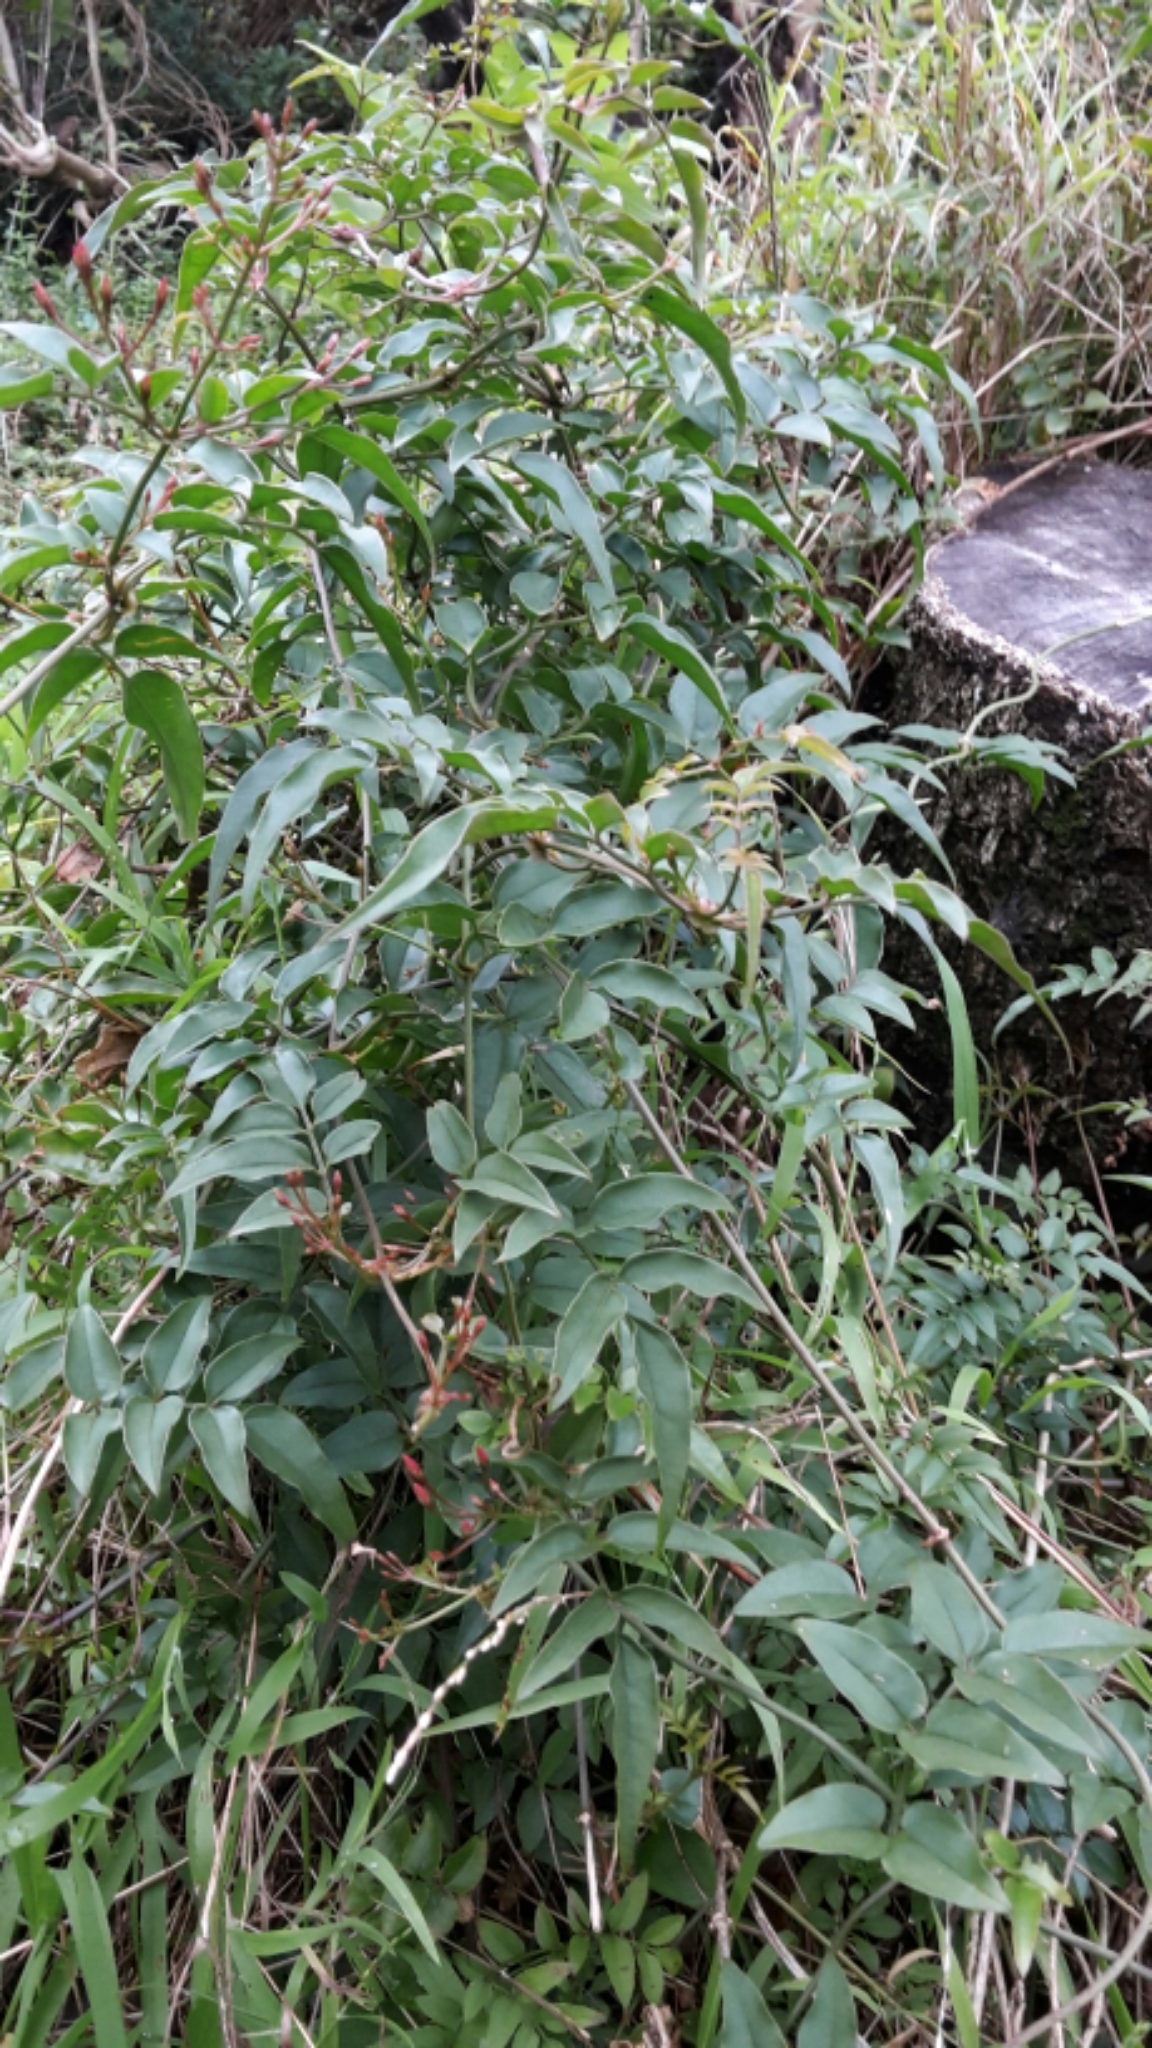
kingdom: Plantae
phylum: Tracheophyta
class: Magnoliopsida
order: Lamiales
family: Oleaceae
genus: Jasminum
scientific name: Jasminum polyanthum
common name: Pink jasmine
